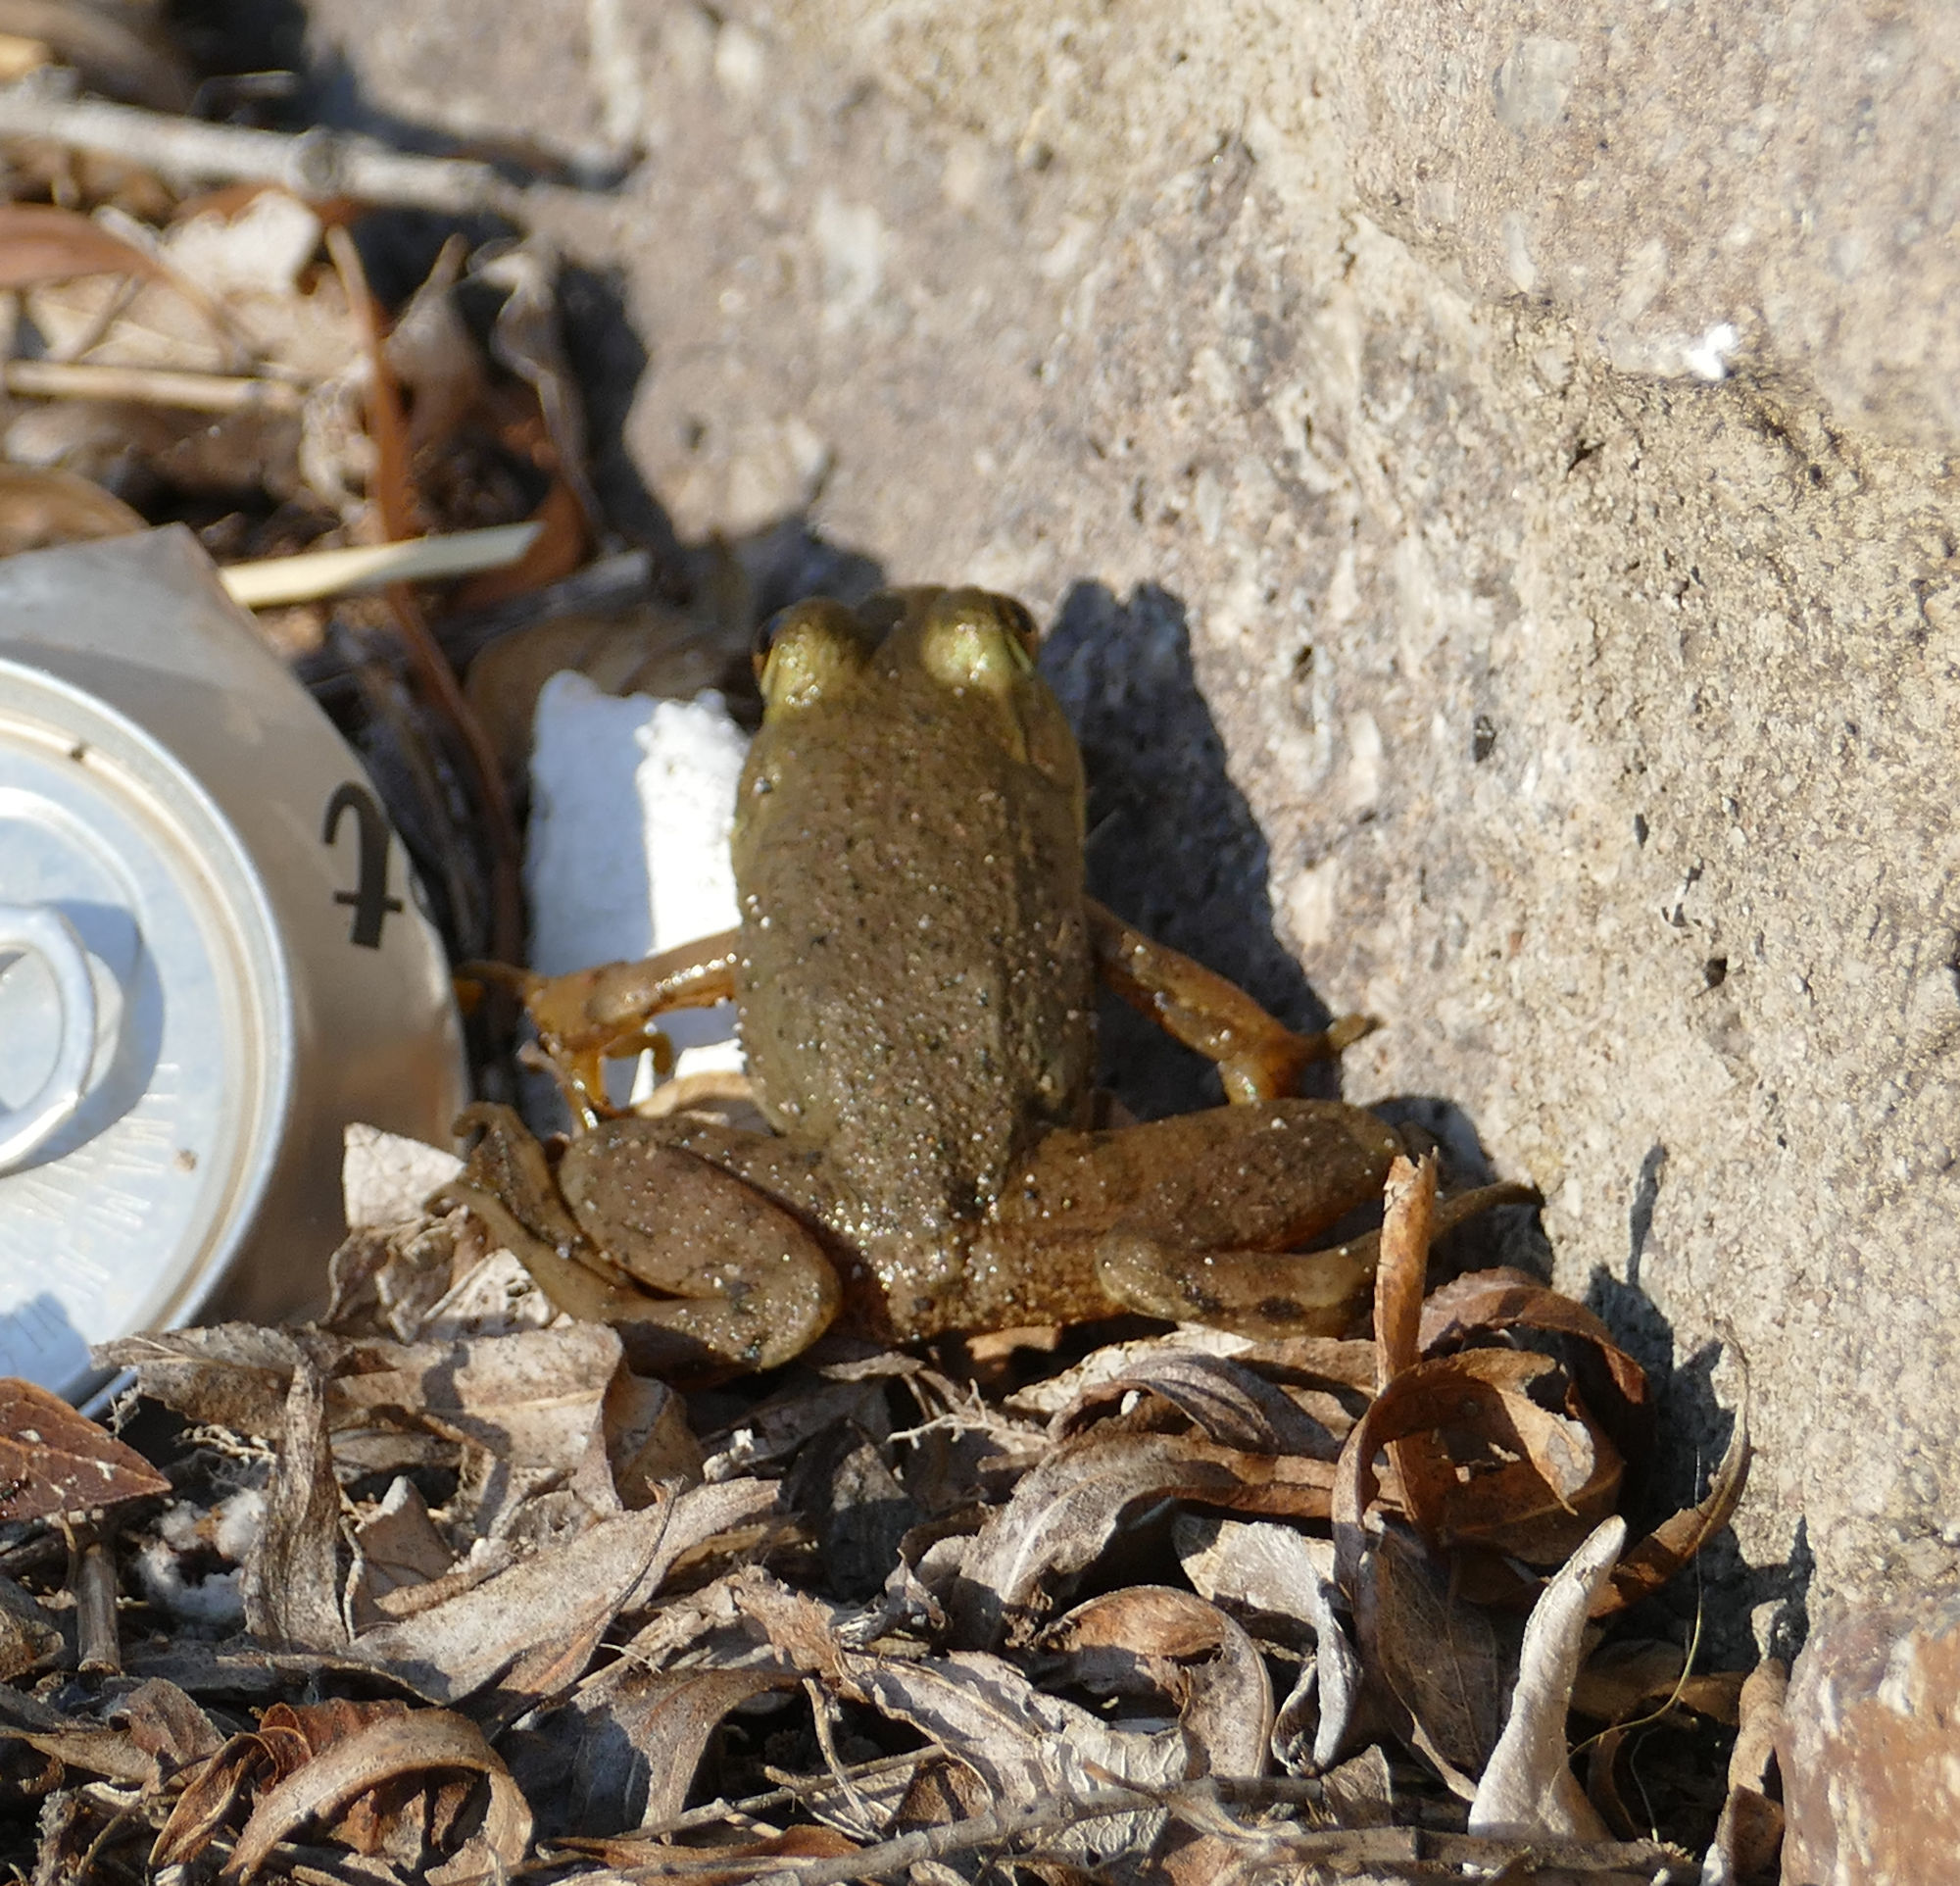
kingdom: Animalia
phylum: Chordata
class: Amphibia
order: Anura
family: Ranidae
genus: Lithobates
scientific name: Lithobates catesbeianus
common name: American bullfrog
